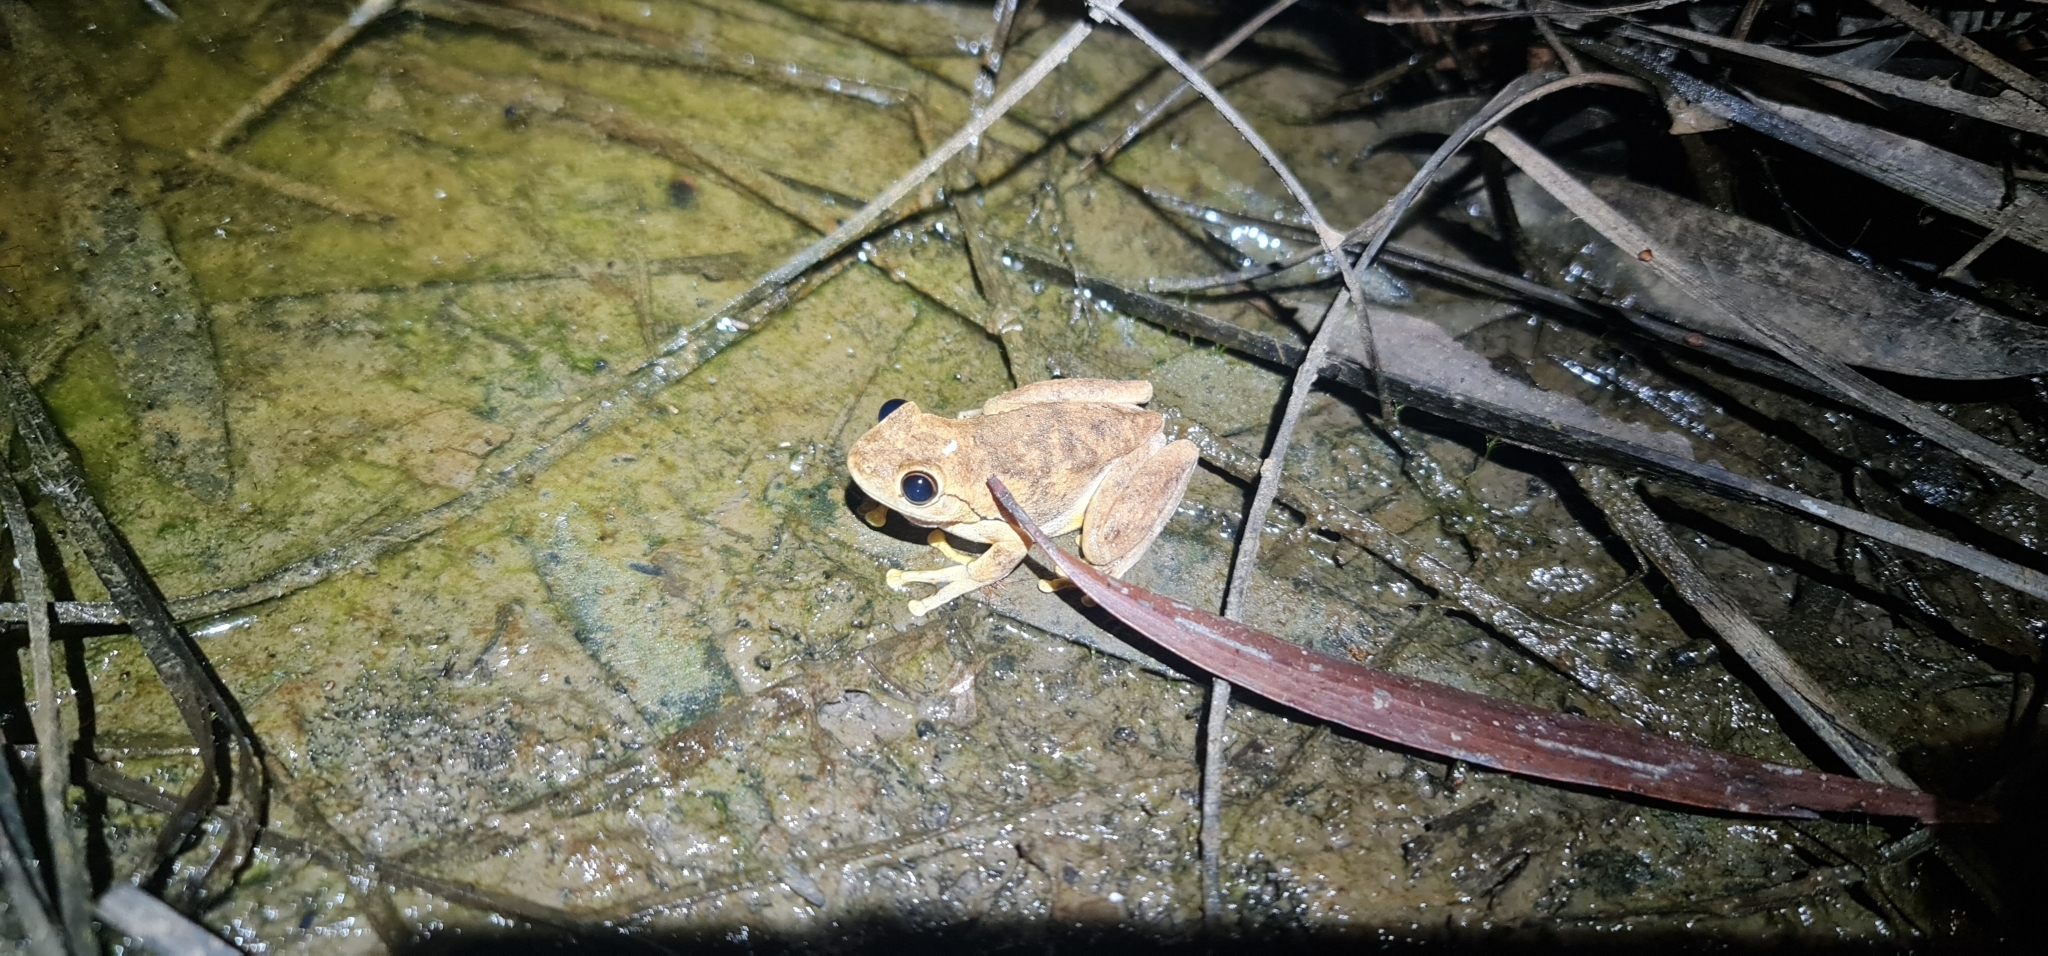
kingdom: Animalia
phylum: Chordata
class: Amphibia
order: Anura
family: Pelodryadidae
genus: Litoria
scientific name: Litoria
